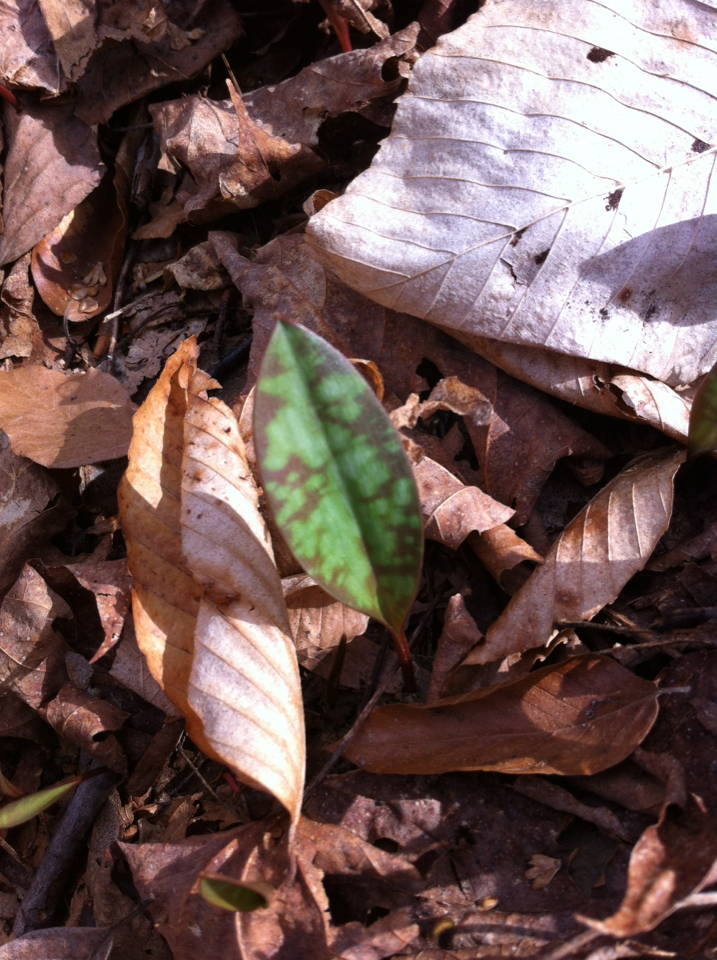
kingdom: Plantae
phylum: Tracheophyta
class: Liliopsida
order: Liliales
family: Liliaceae
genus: Erythronium
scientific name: Erythronium americanum
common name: Yellow adder's-tongue
